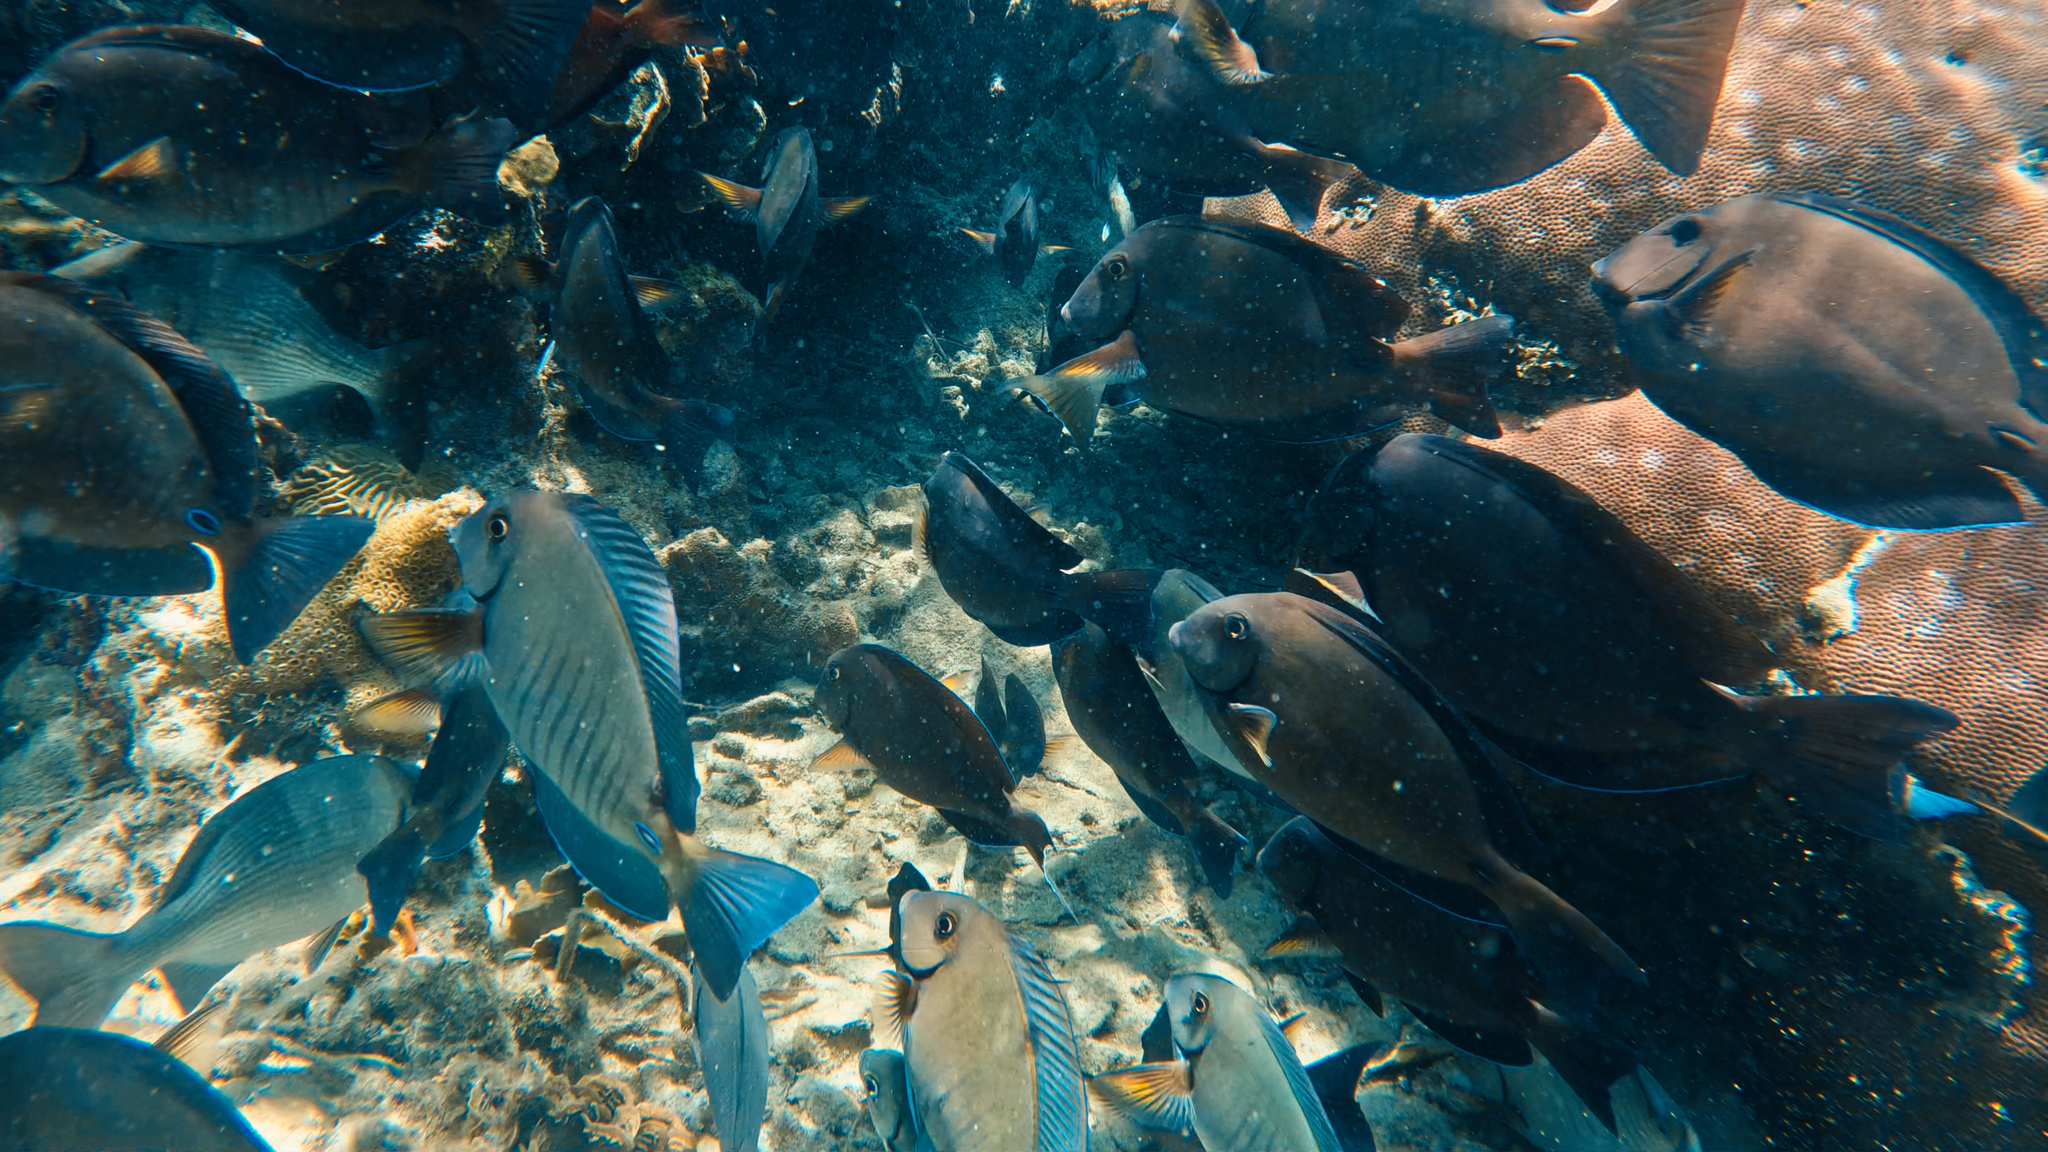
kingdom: Animalia
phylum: Chordata
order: Perciformes
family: Acanthuridae
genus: Acanthurus
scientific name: Acanthurus chirurgus
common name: Doctorfish
